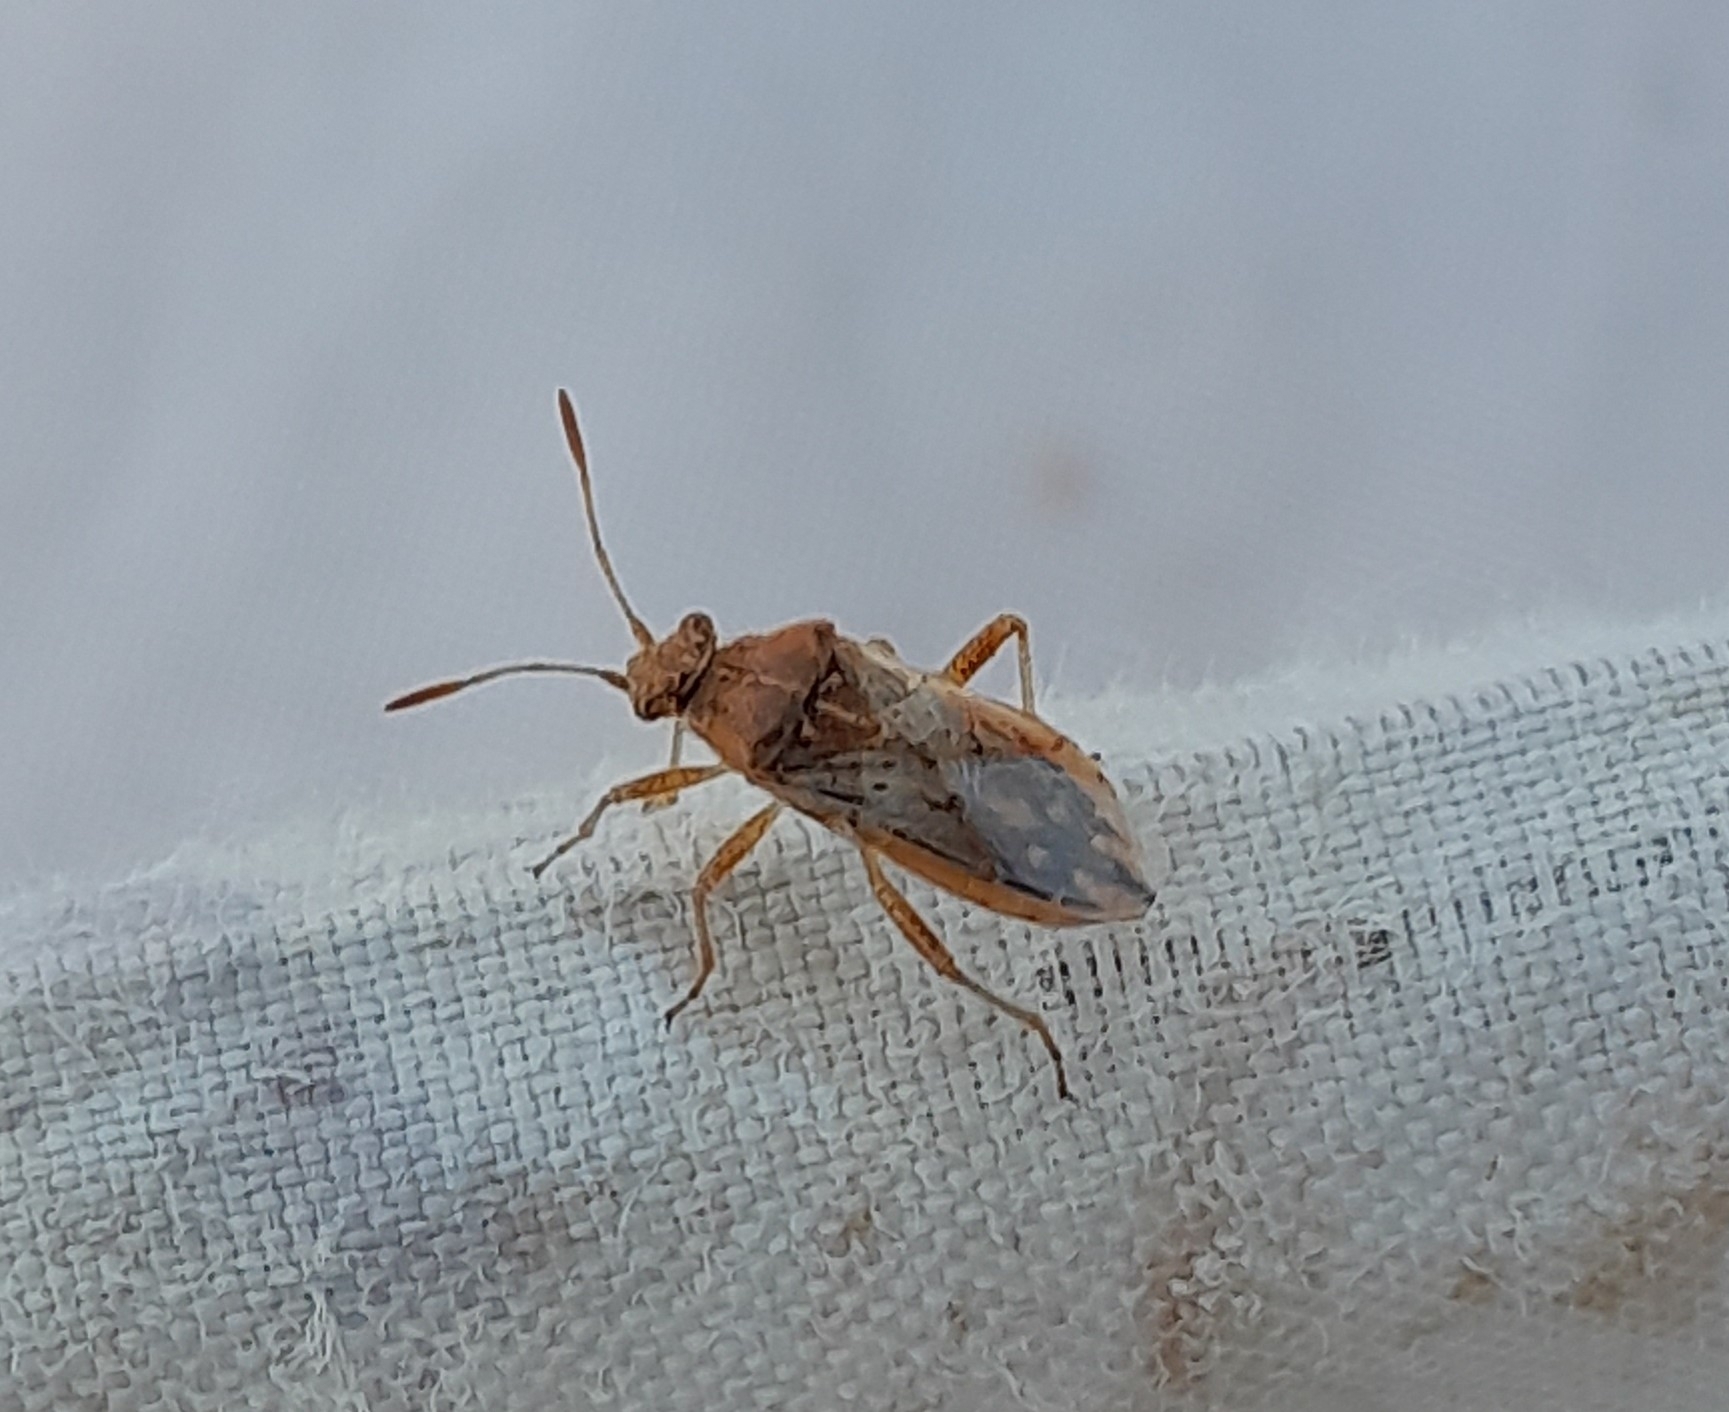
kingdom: Animalia
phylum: Arthropoda
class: Insecta
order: Hemiptera
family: Rhopalidae
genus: Rhopalus
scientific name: Rhopalus parumpunctatus
